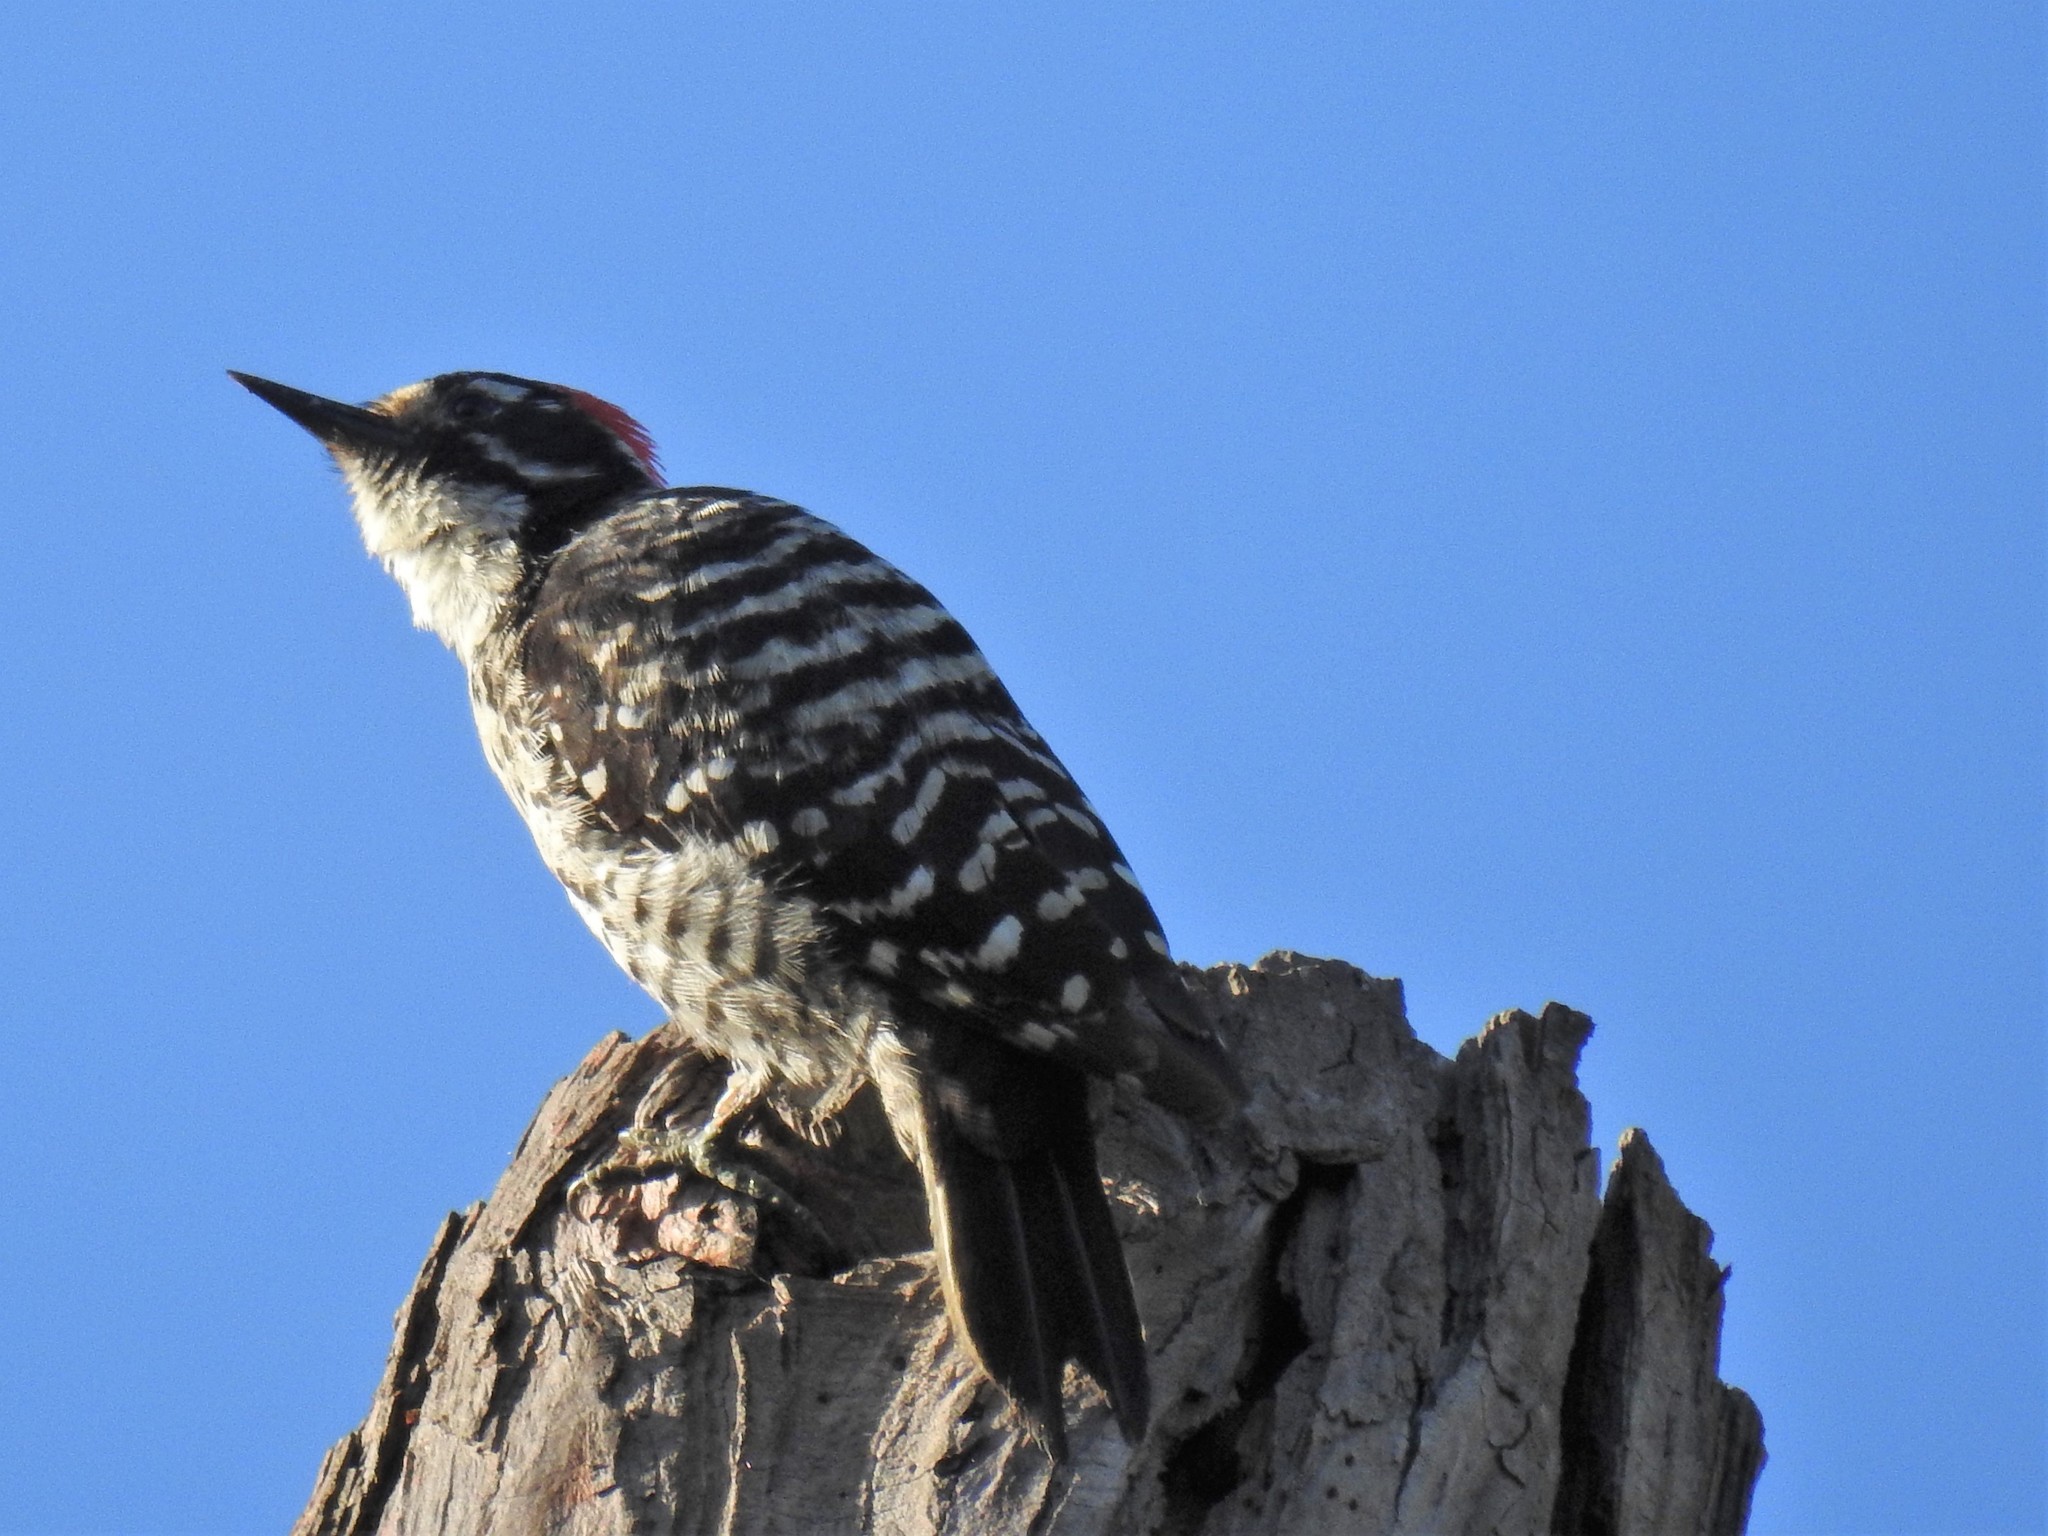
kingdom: Animalia
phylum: Chordata
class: Aves
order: Piciformes
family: Picidae
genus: Dryobates
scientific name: Dryobates nuttallii
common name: Nuttall's woodpecker
